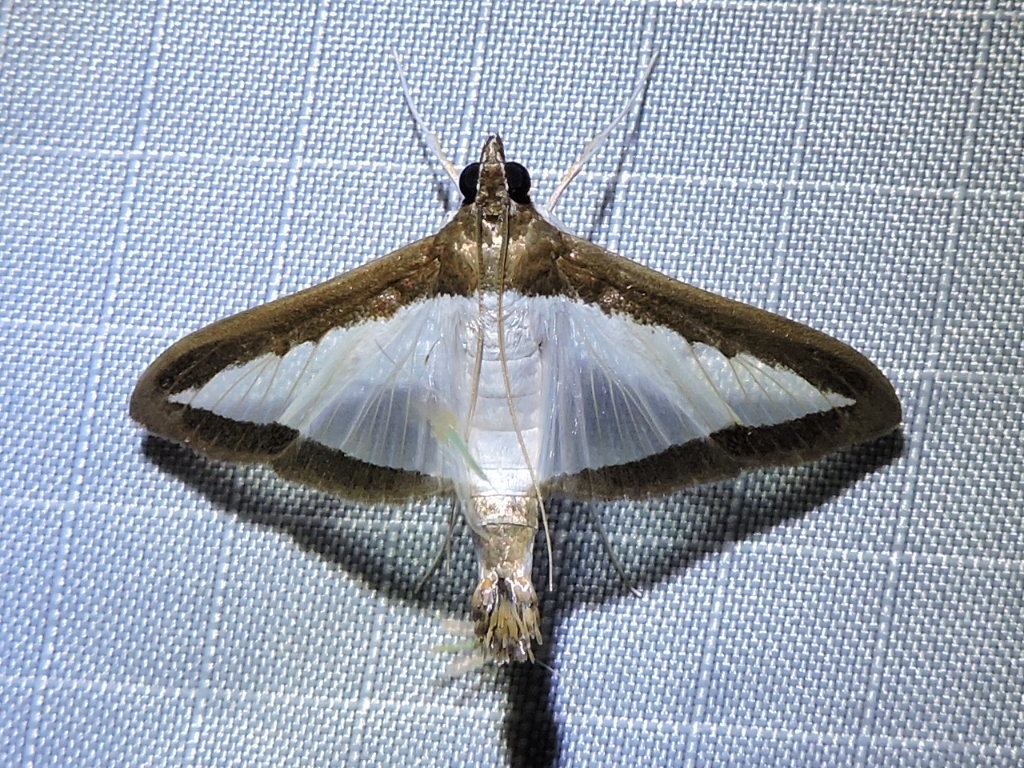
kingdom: Animalia
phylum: Arthropoda
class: Insecta
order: Lepidoptera
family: Crambidae
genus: Diaphania
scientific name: Diaphania hyalinata
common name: Melonworm
